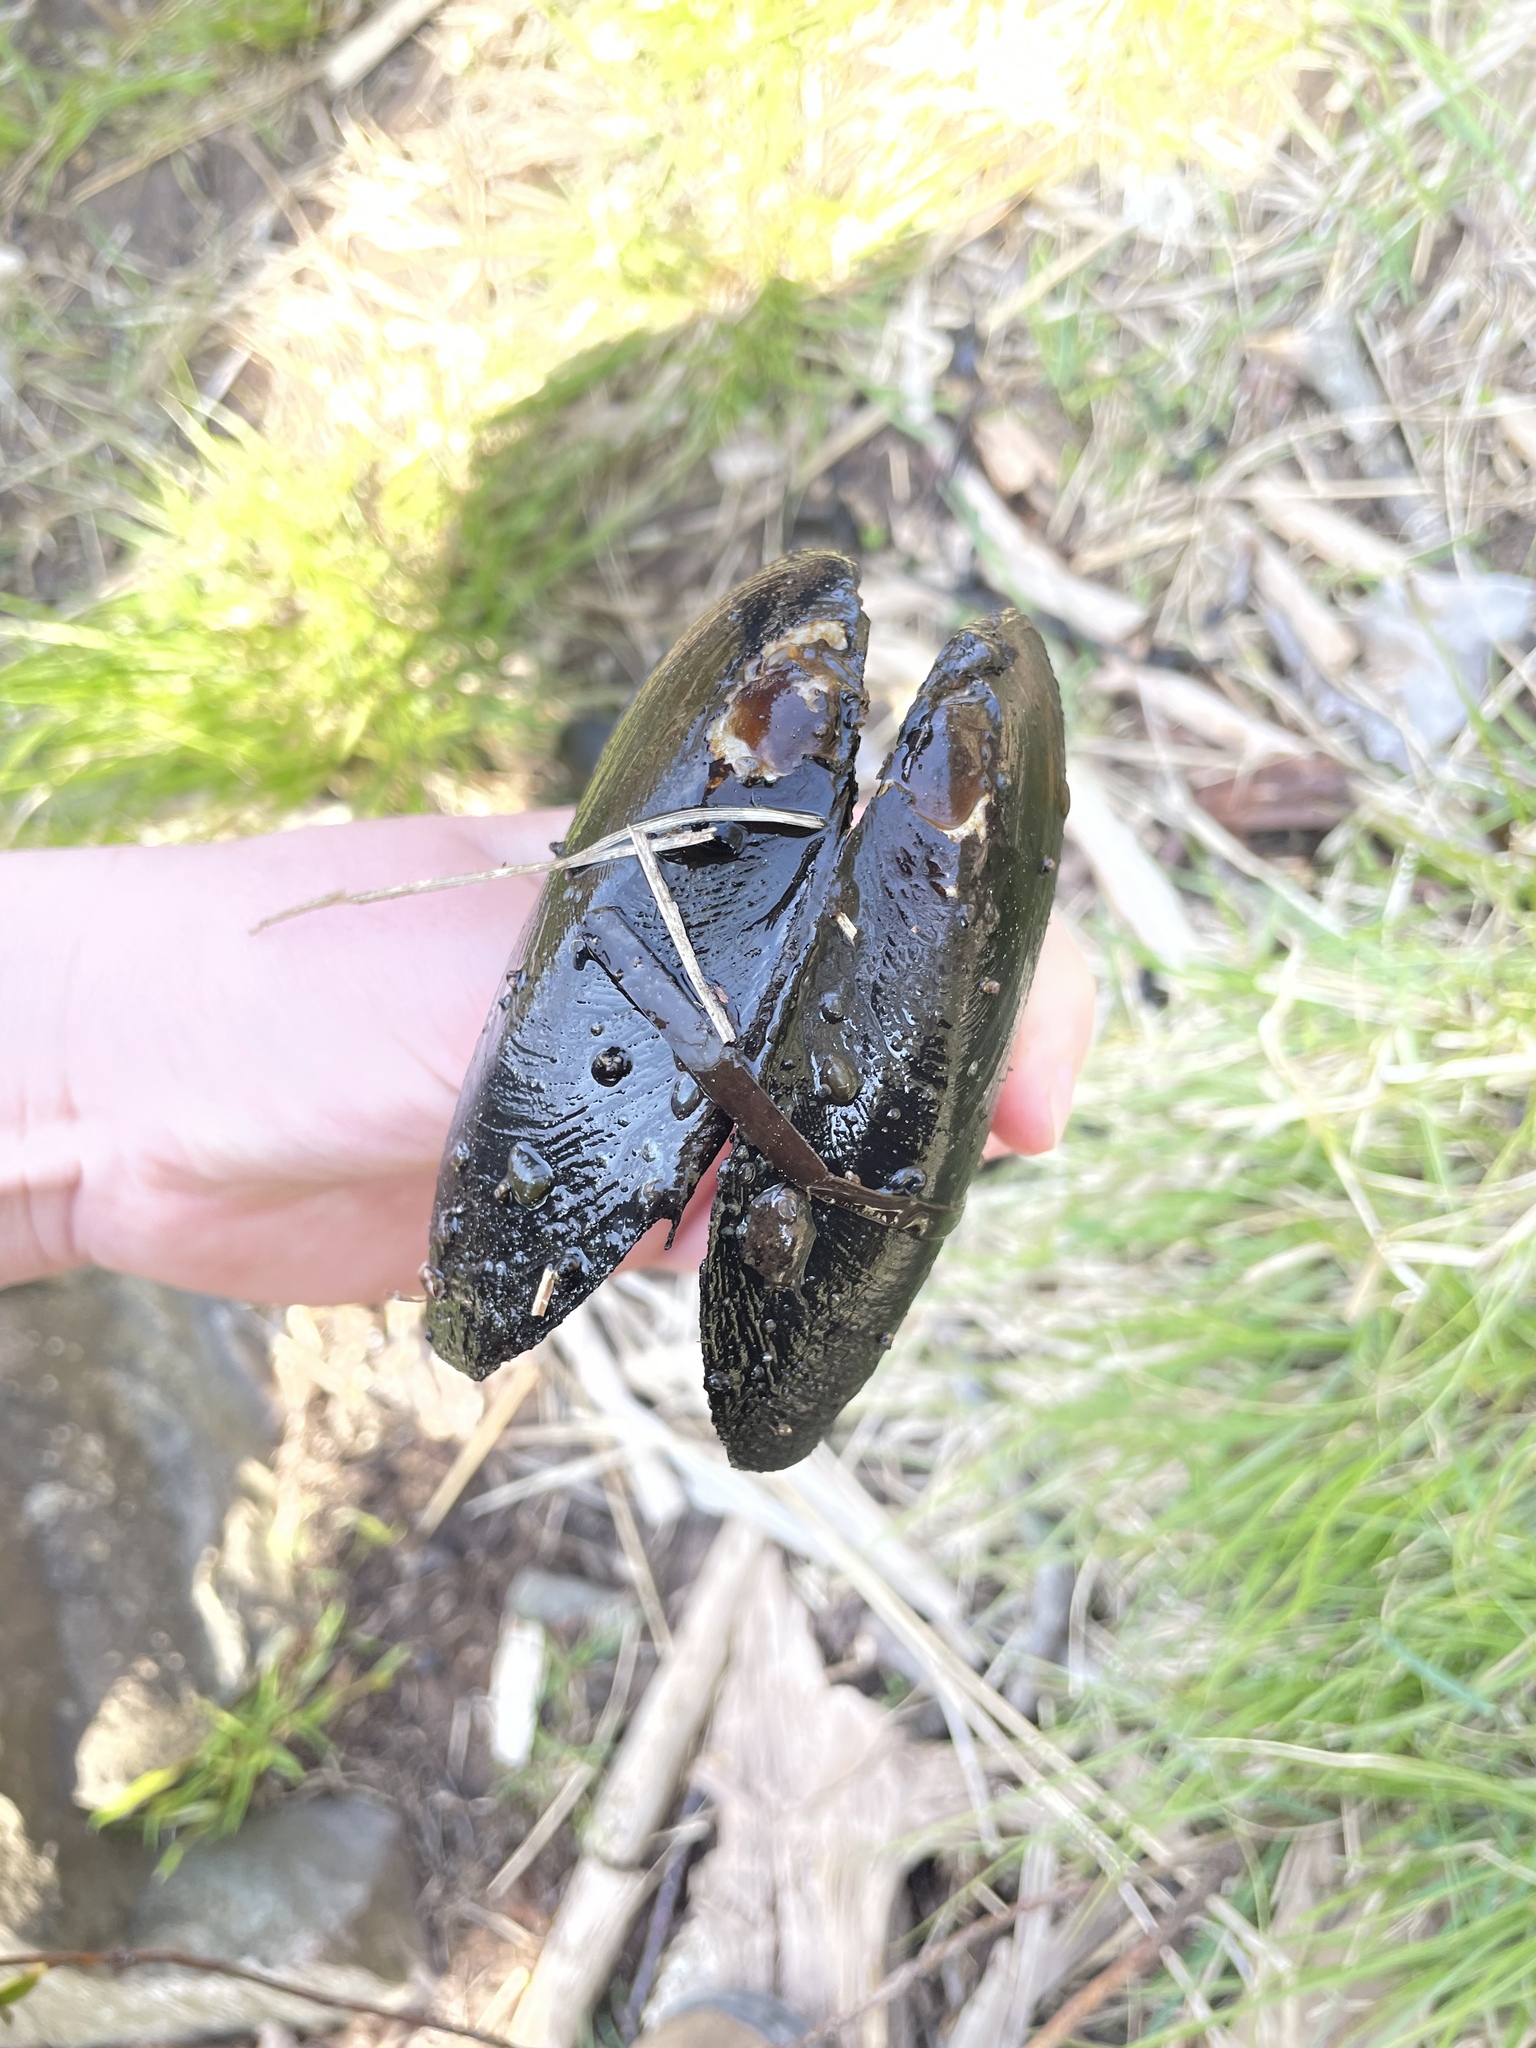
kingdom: Animalia
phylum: Mollusca
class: Bivalvia
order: Unionida
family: Unionidae
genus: Elliptio
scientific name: Elliptio complanata
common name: Eastern elliptio
